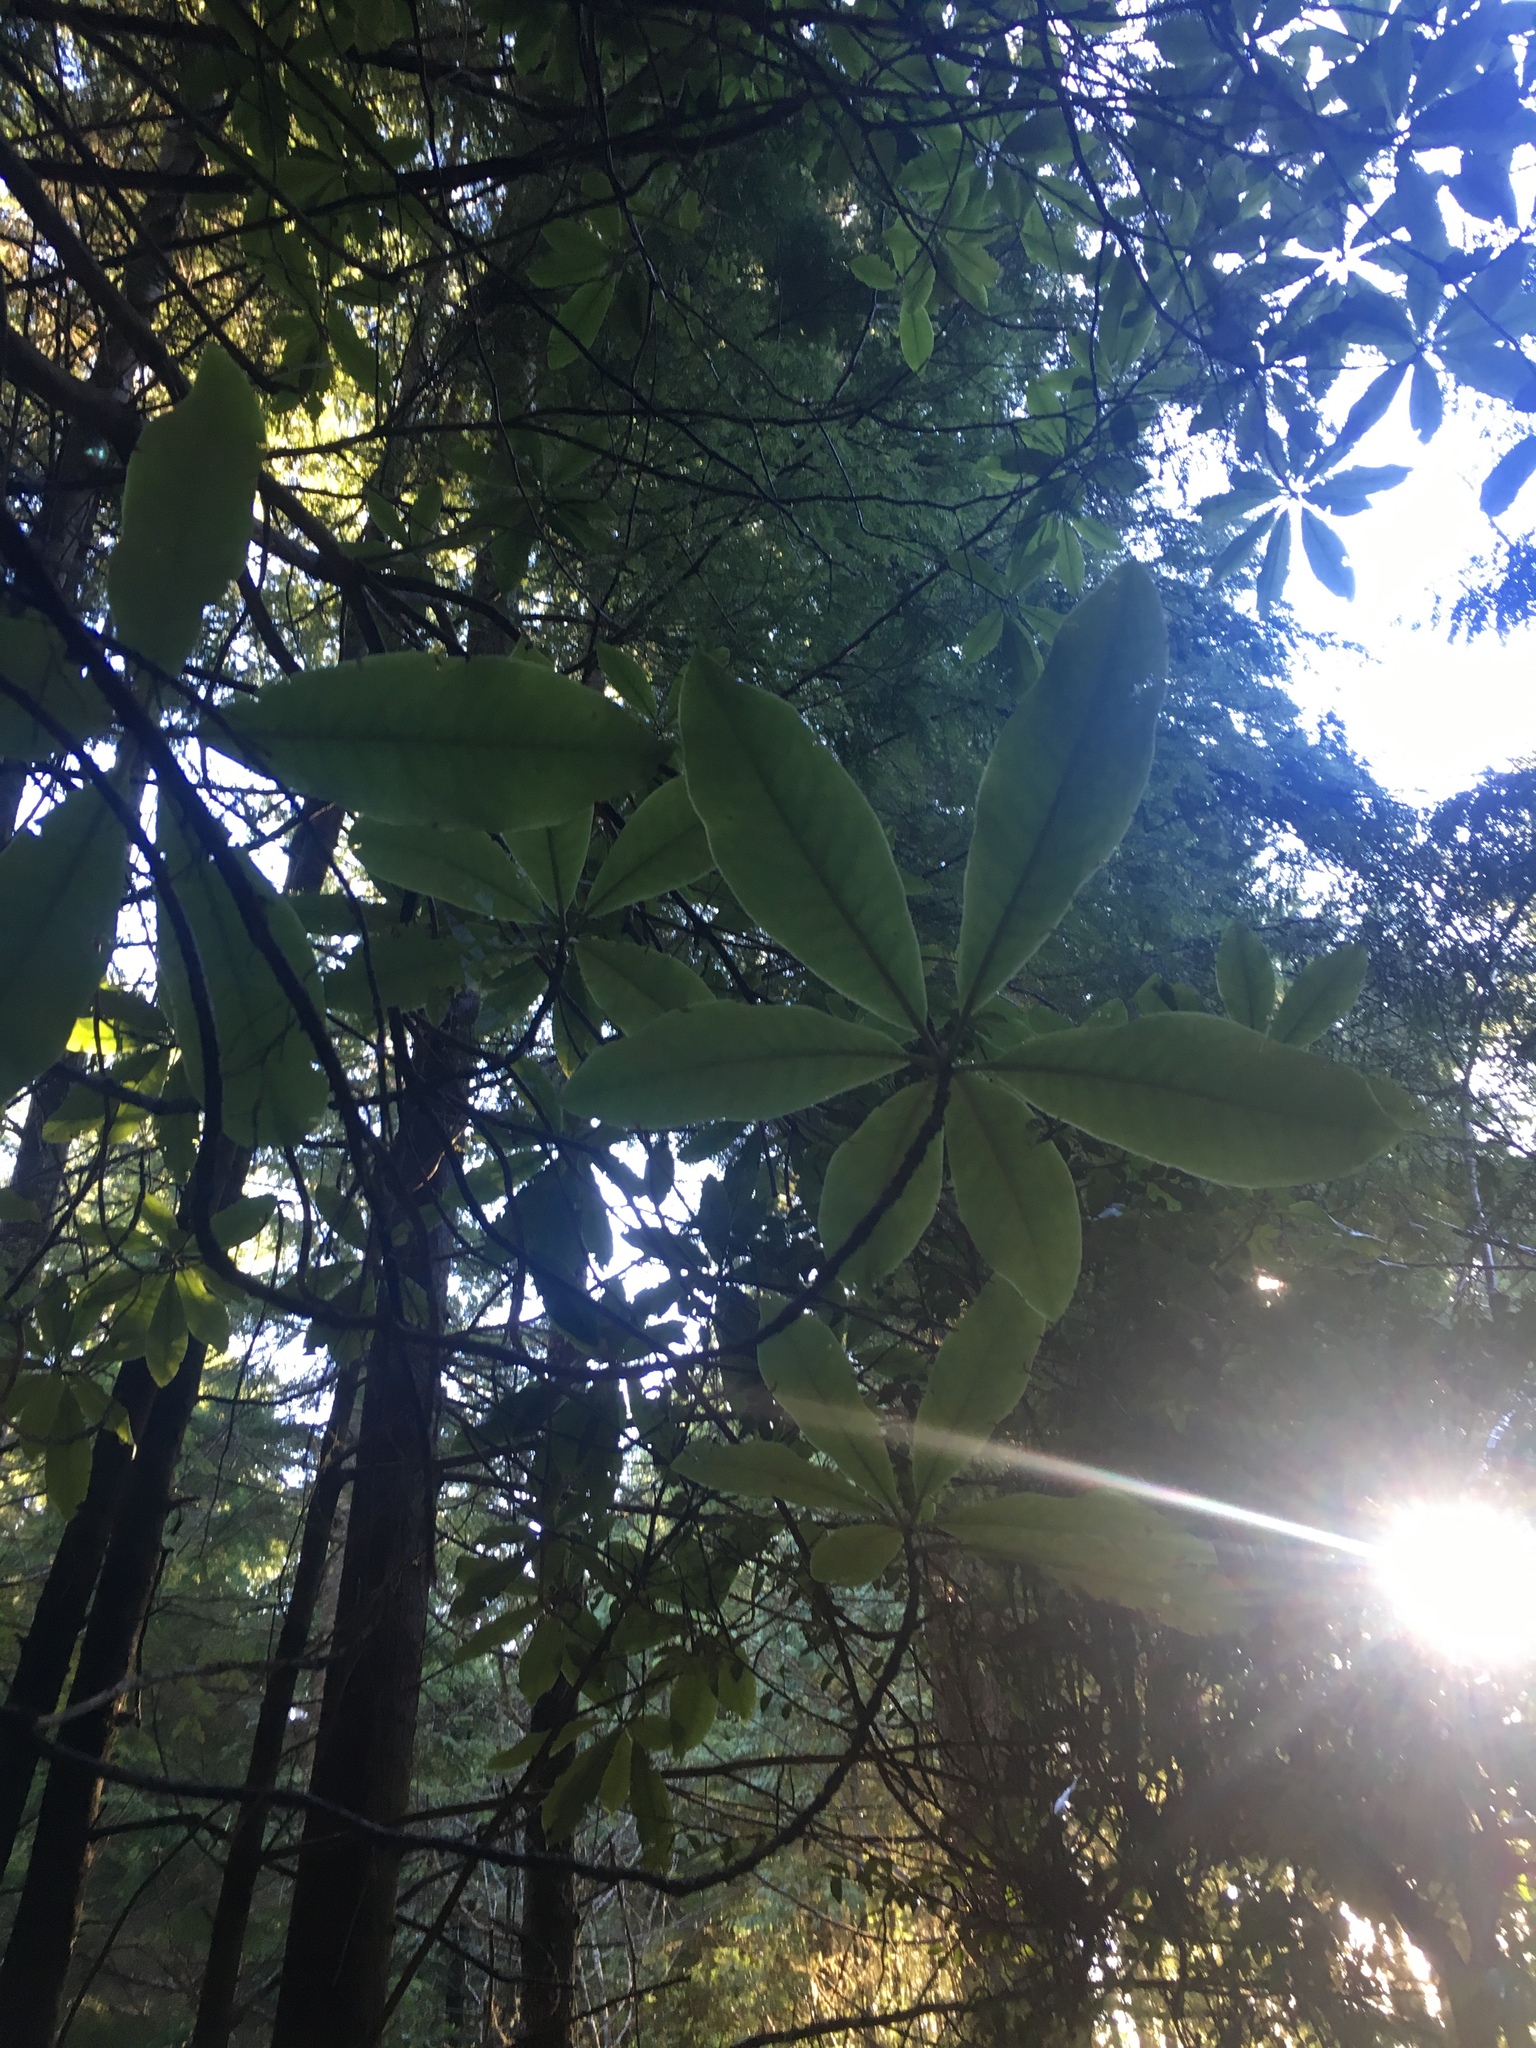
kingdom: Plantae
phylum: Tracheophyta
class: Magnoliopsida
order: Ericales
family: Ericaceae
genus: Rhododendron
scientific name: Rhododendron macrophyllum
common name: California rose bay
